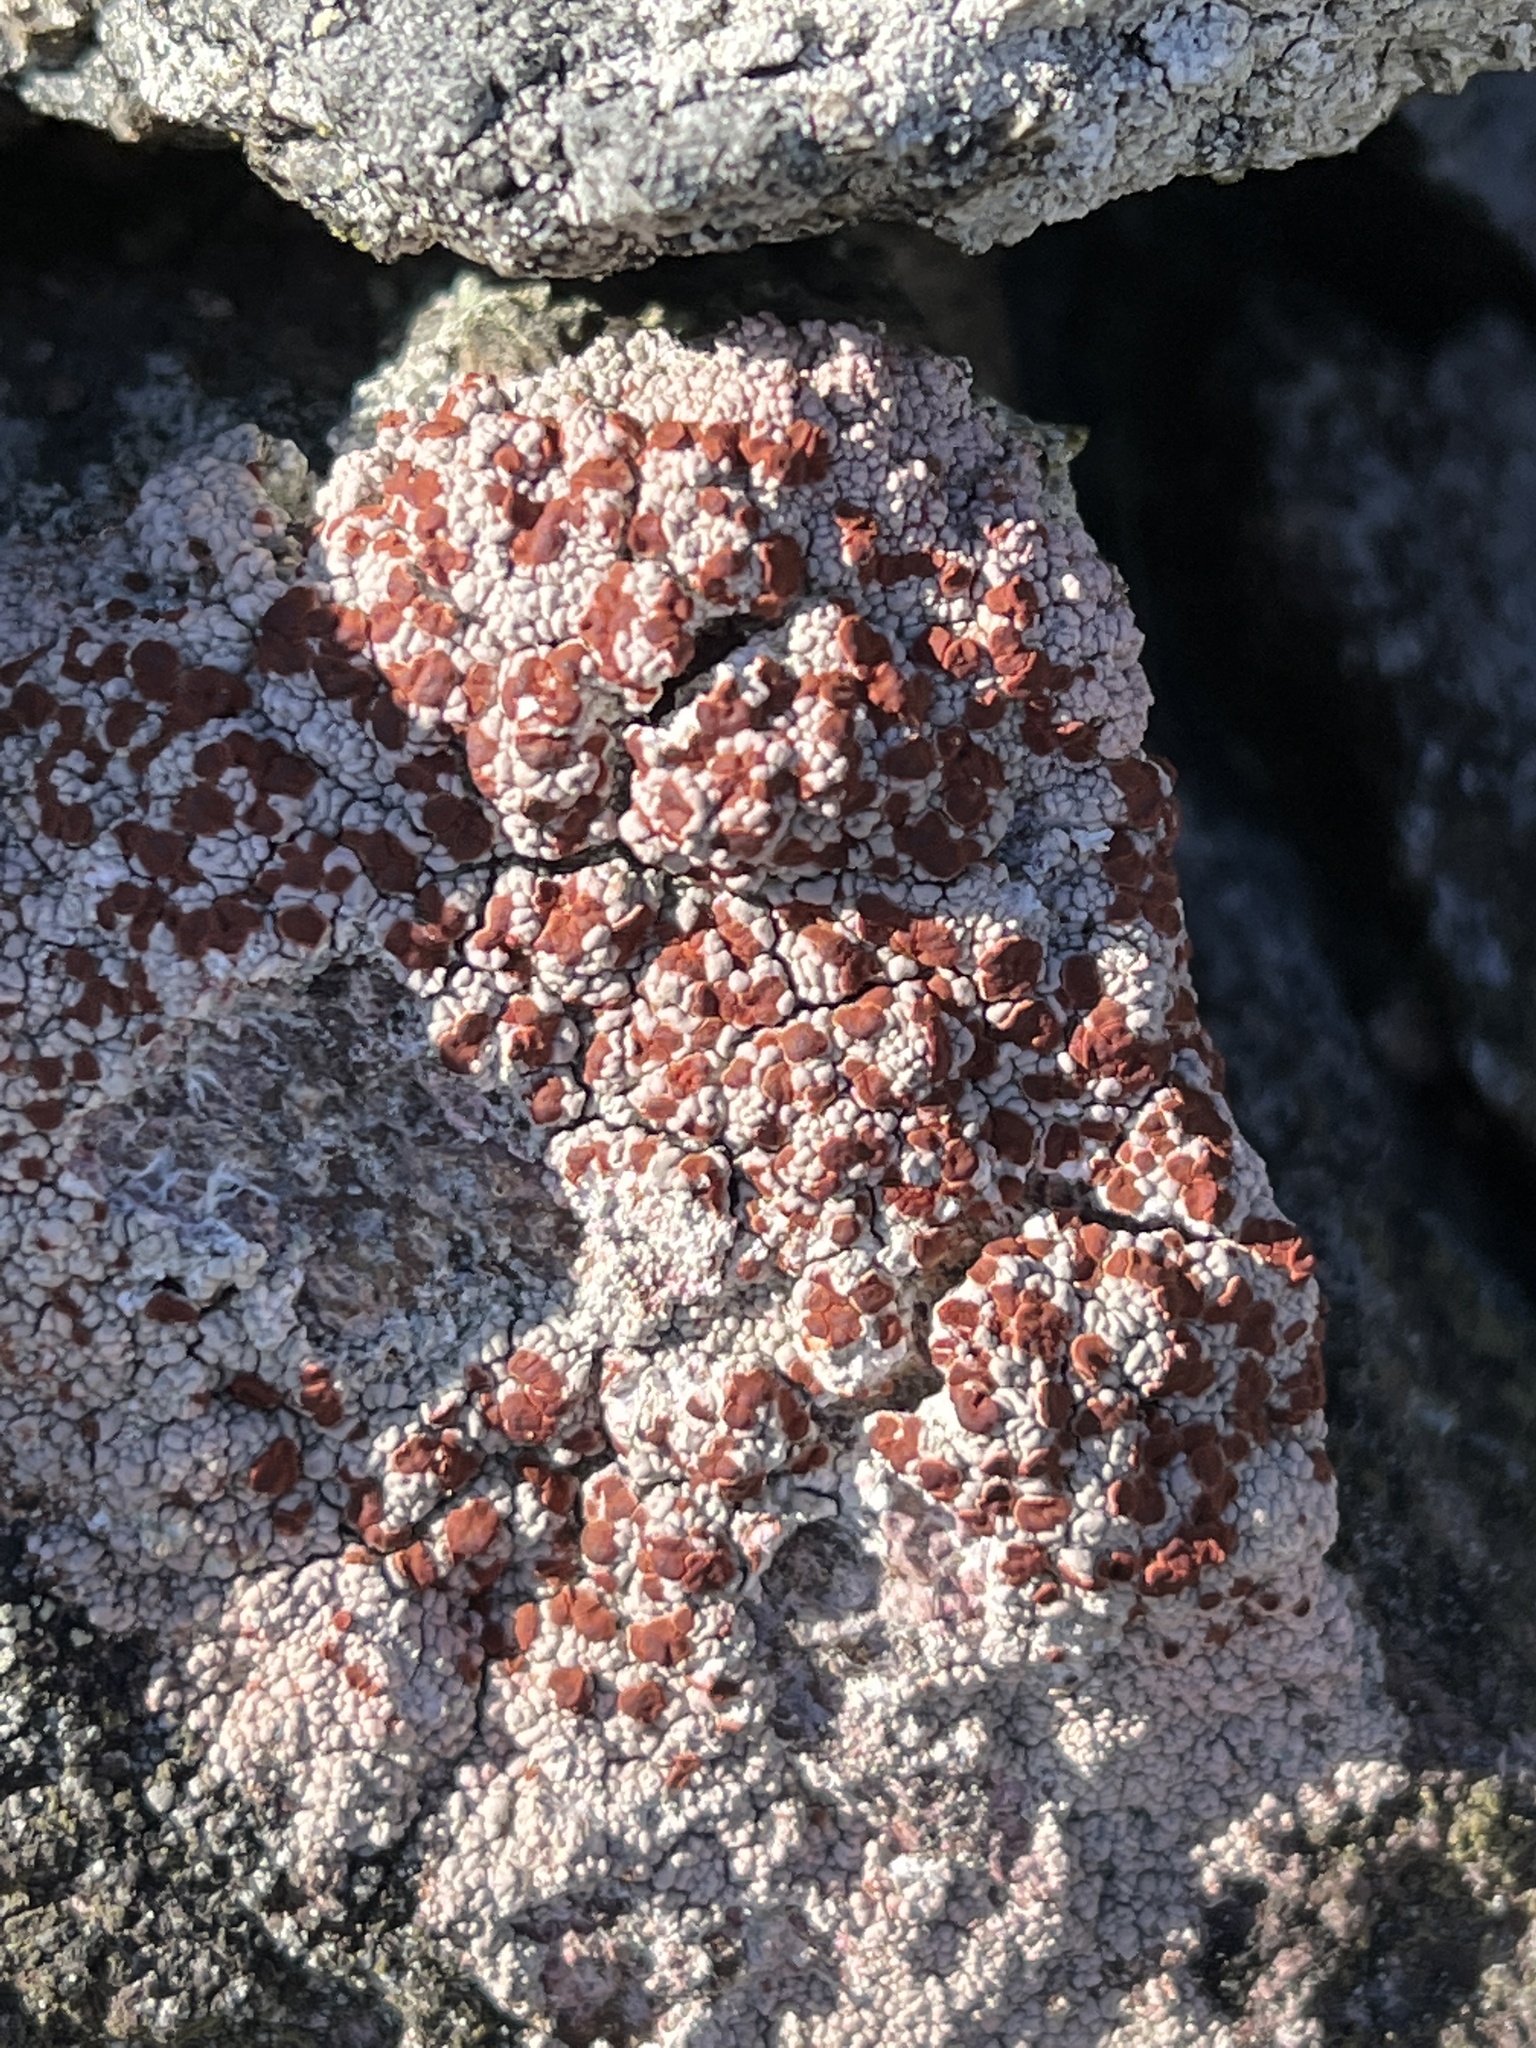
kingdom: Fungi
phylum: Ascomycota
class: Lecanoromycetes
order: Umbilicariales
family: Ophioparmaceae
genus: Ophioparma
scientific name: Ophioparma ventosa
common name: Blood-spot
